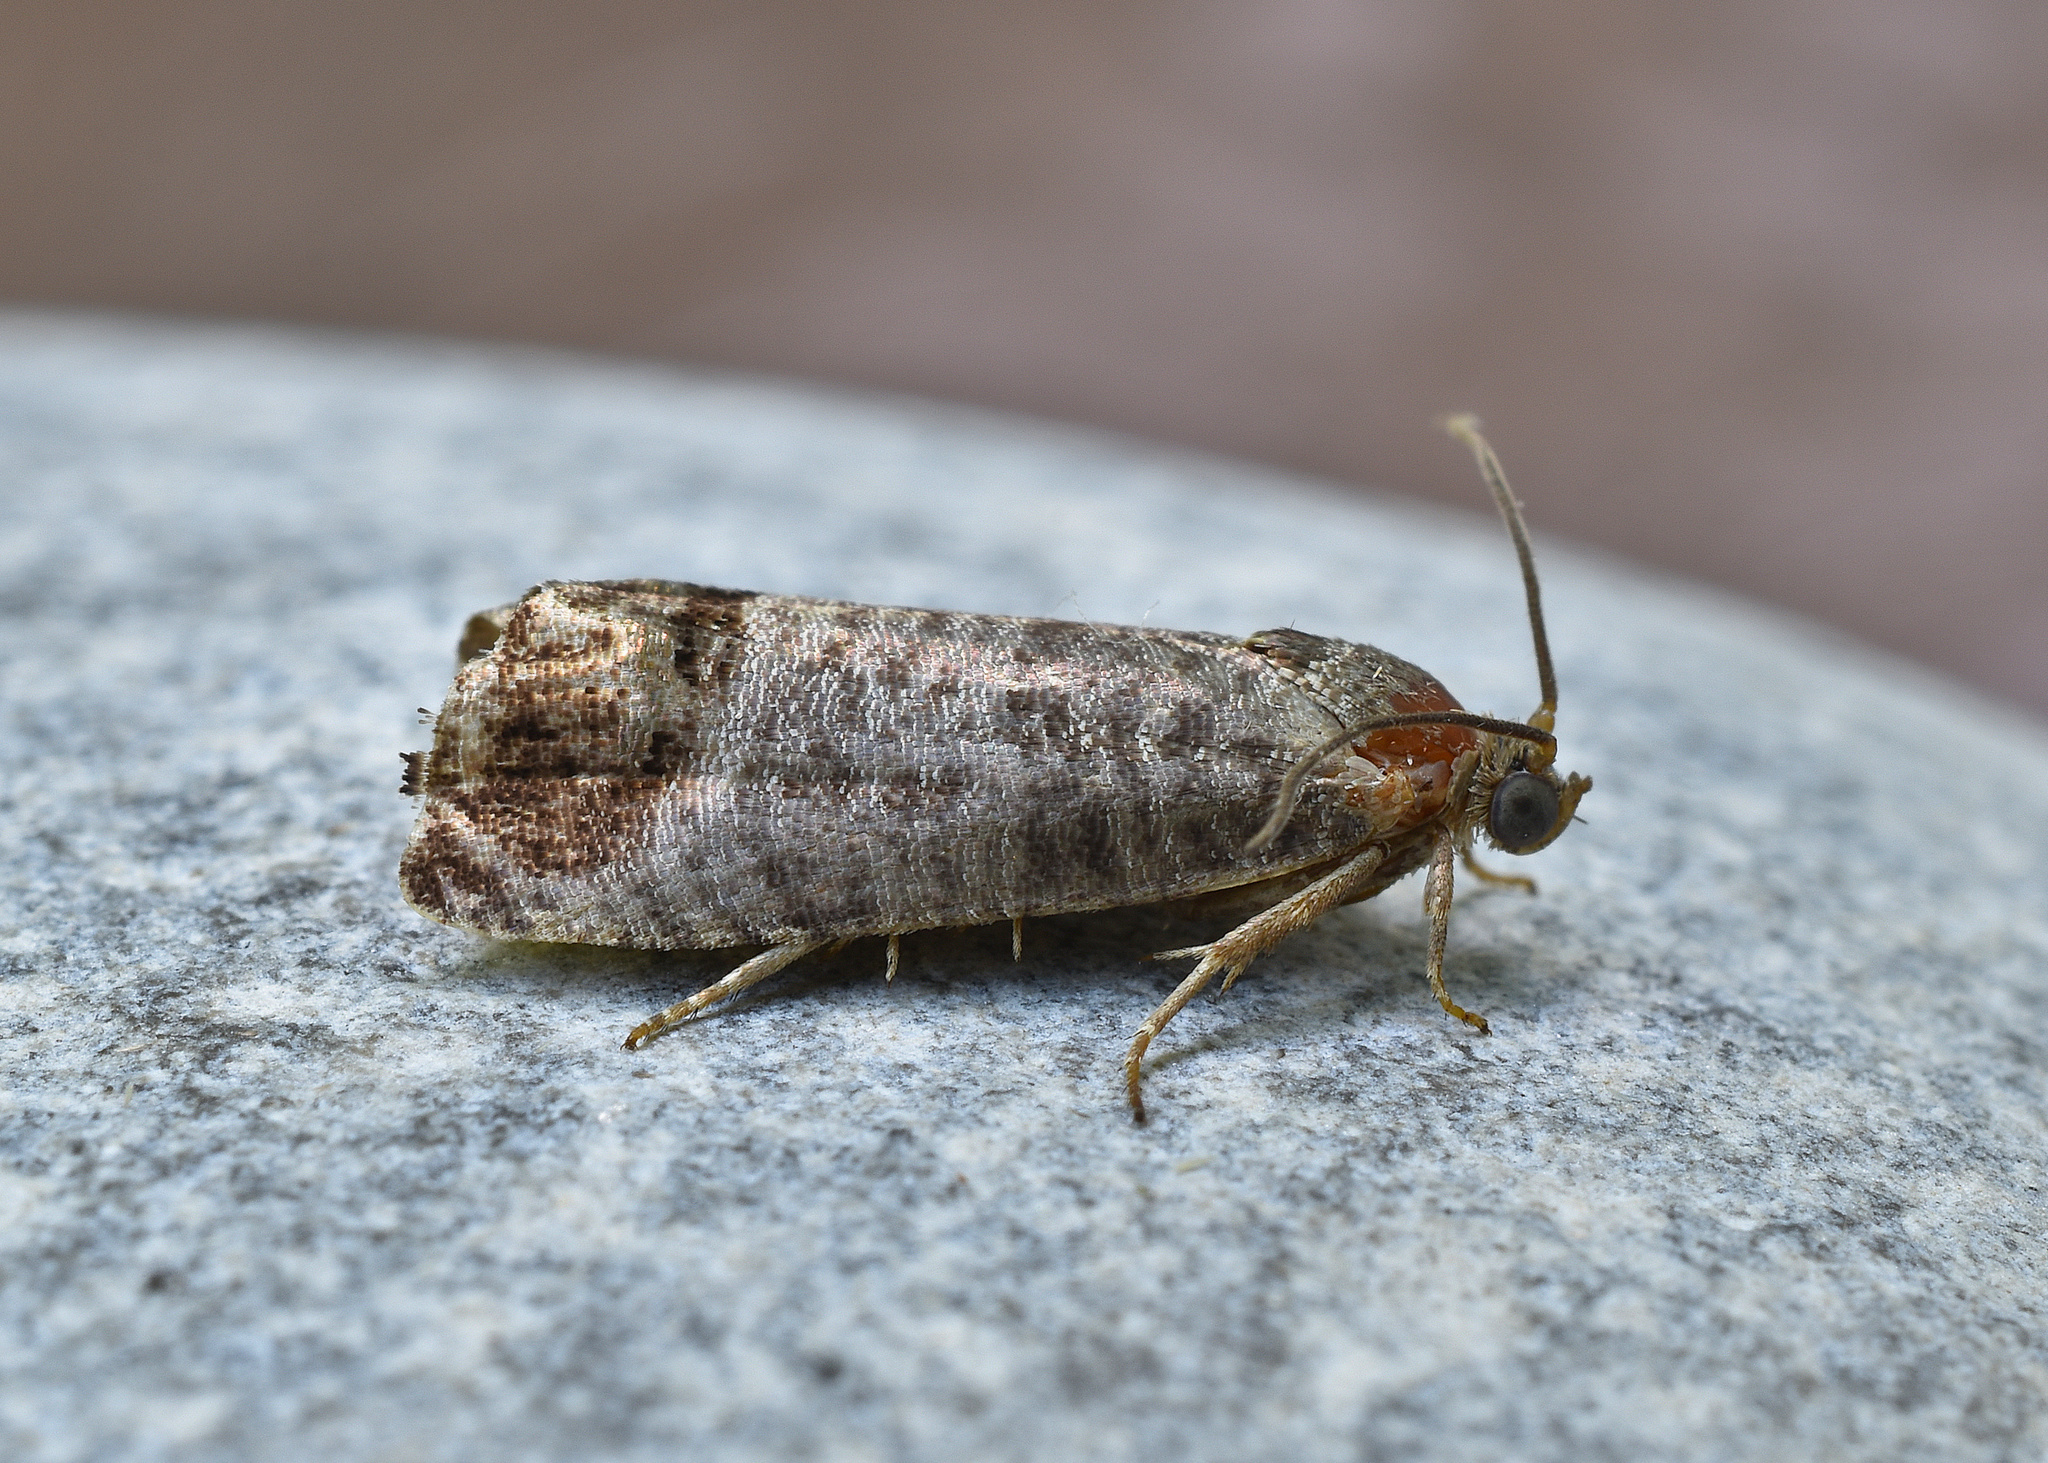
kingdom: Animalia
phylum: Arthropoda
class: Insecta
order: Lepidoptera
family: Tortricidae
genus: Cydia
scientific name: Cydia pomonella
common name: Codling moth
